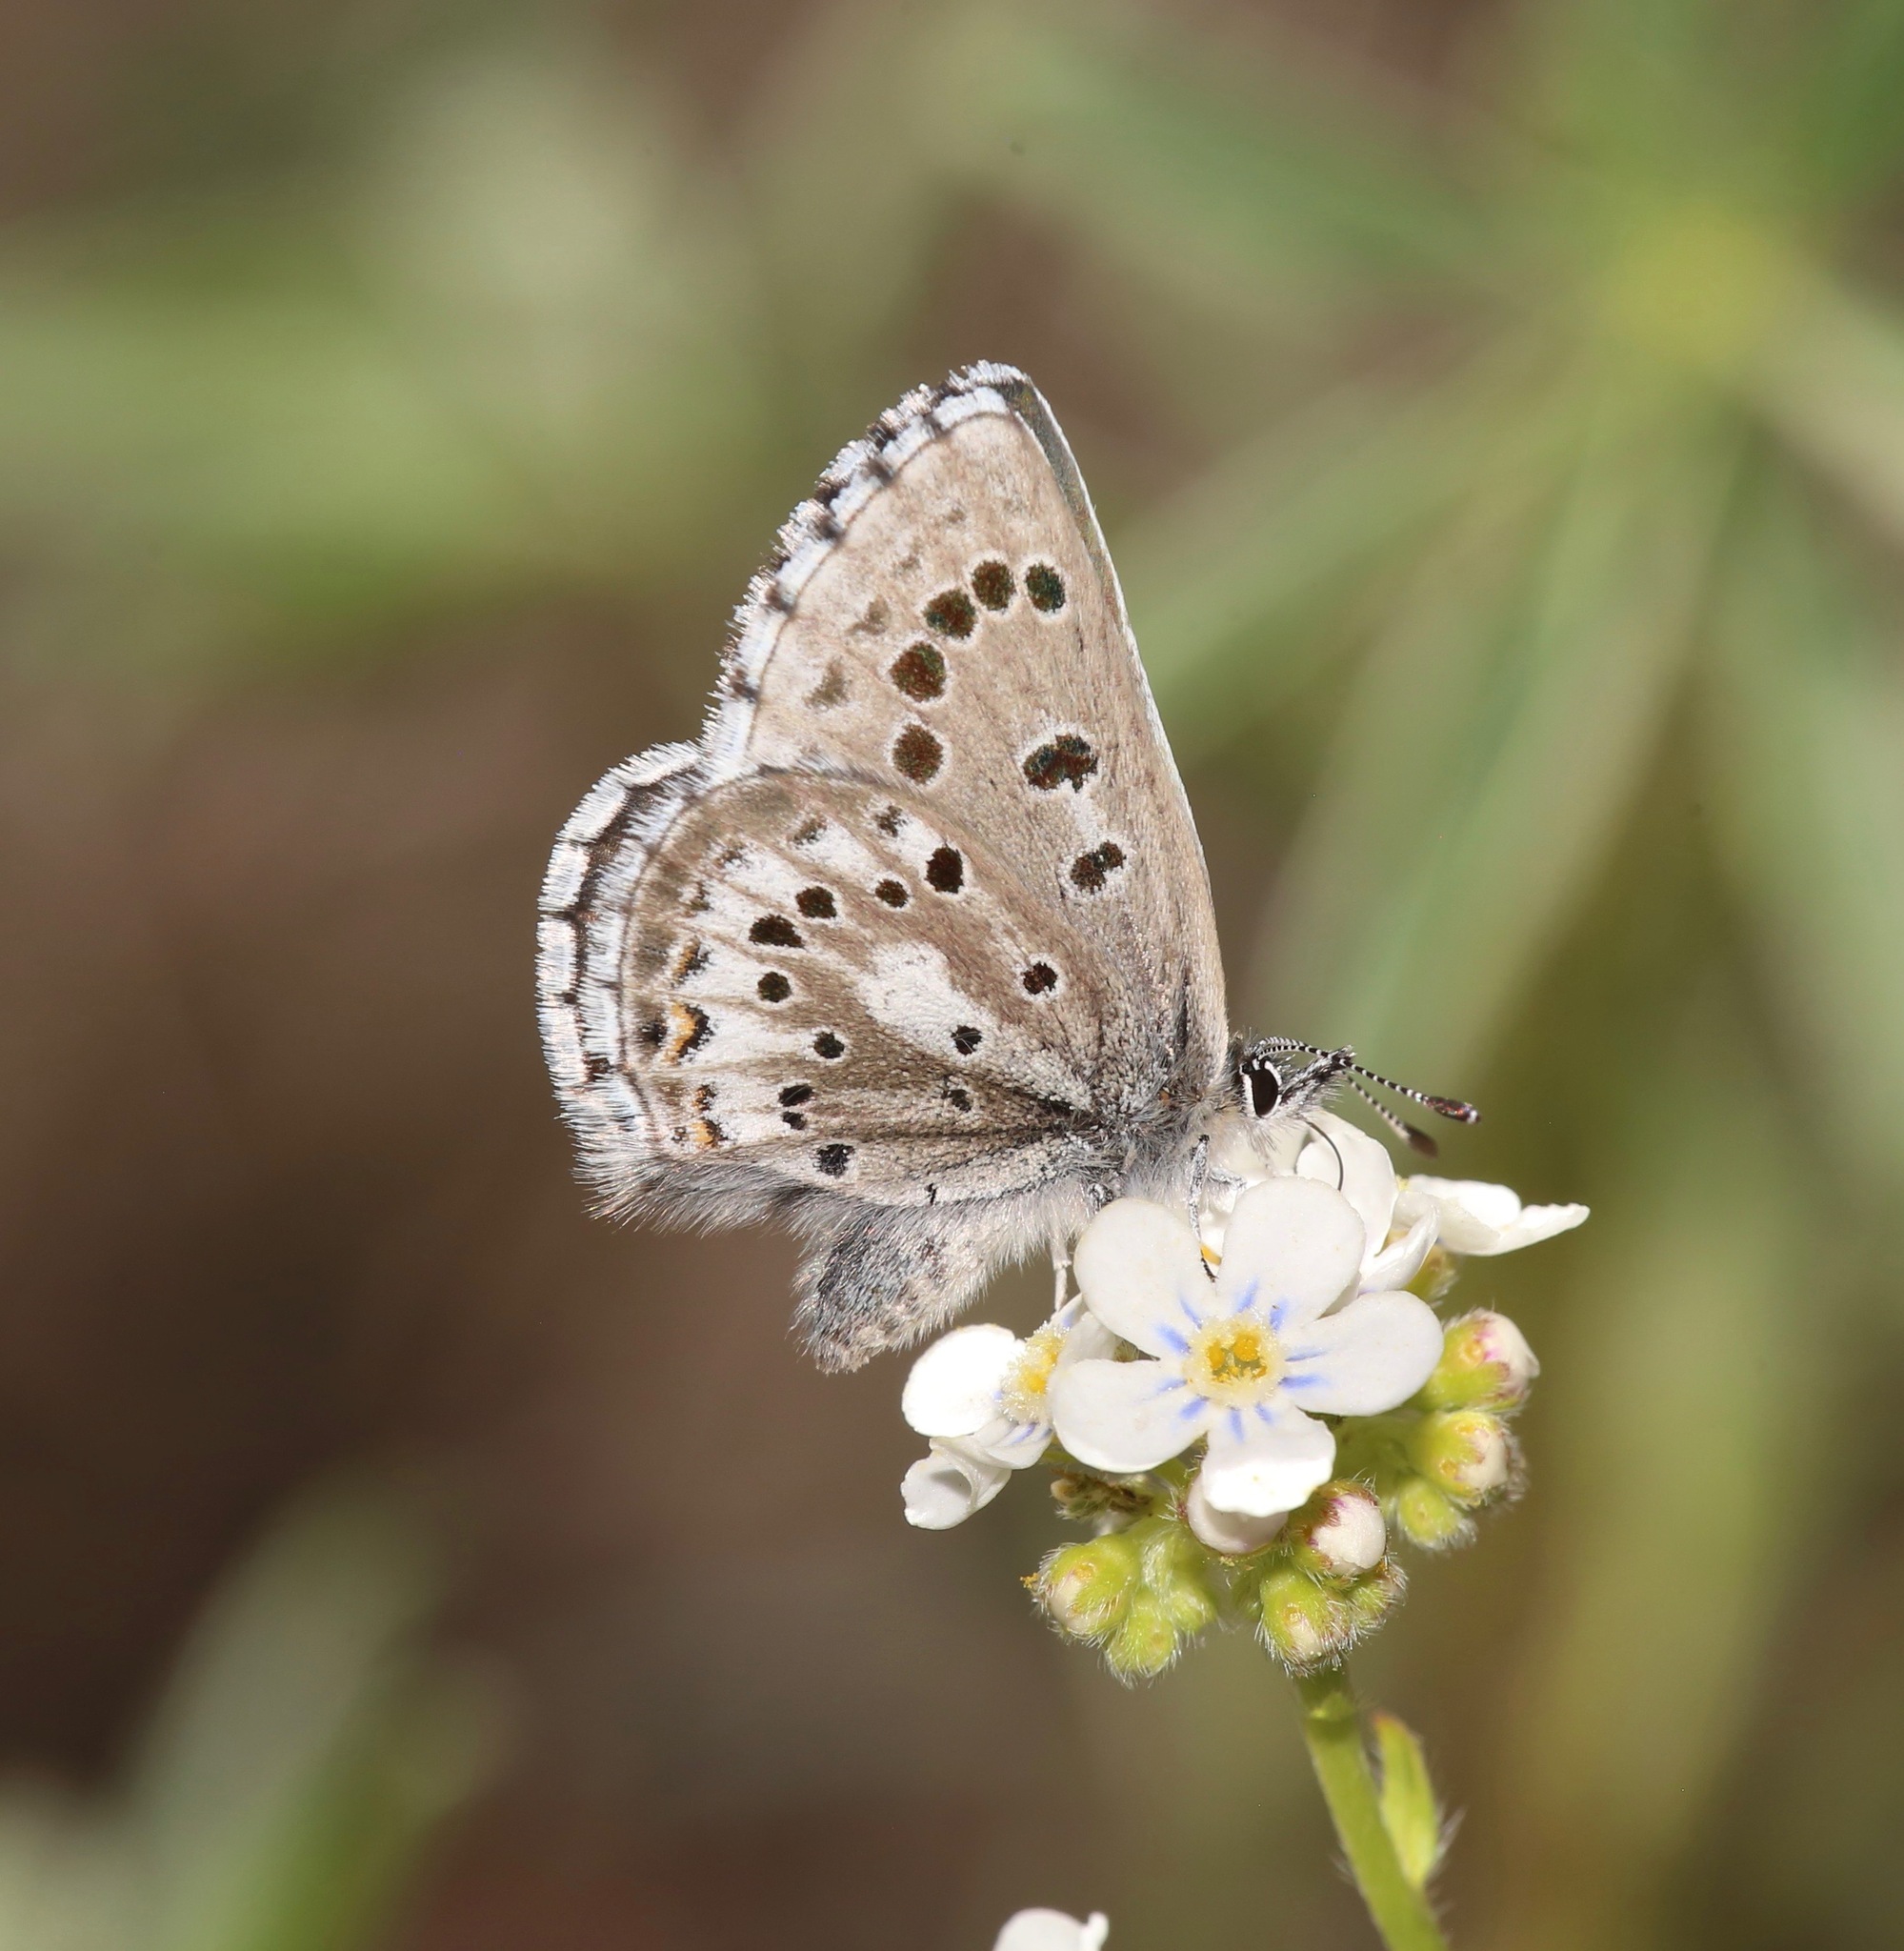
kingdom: Animalia
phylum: Arthropoda
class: Insecta
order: Lepidoptera
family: Lycaenidae
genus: Glaucopsyche
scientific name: Glaucopsyche piasus
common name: Arrowhead blue
